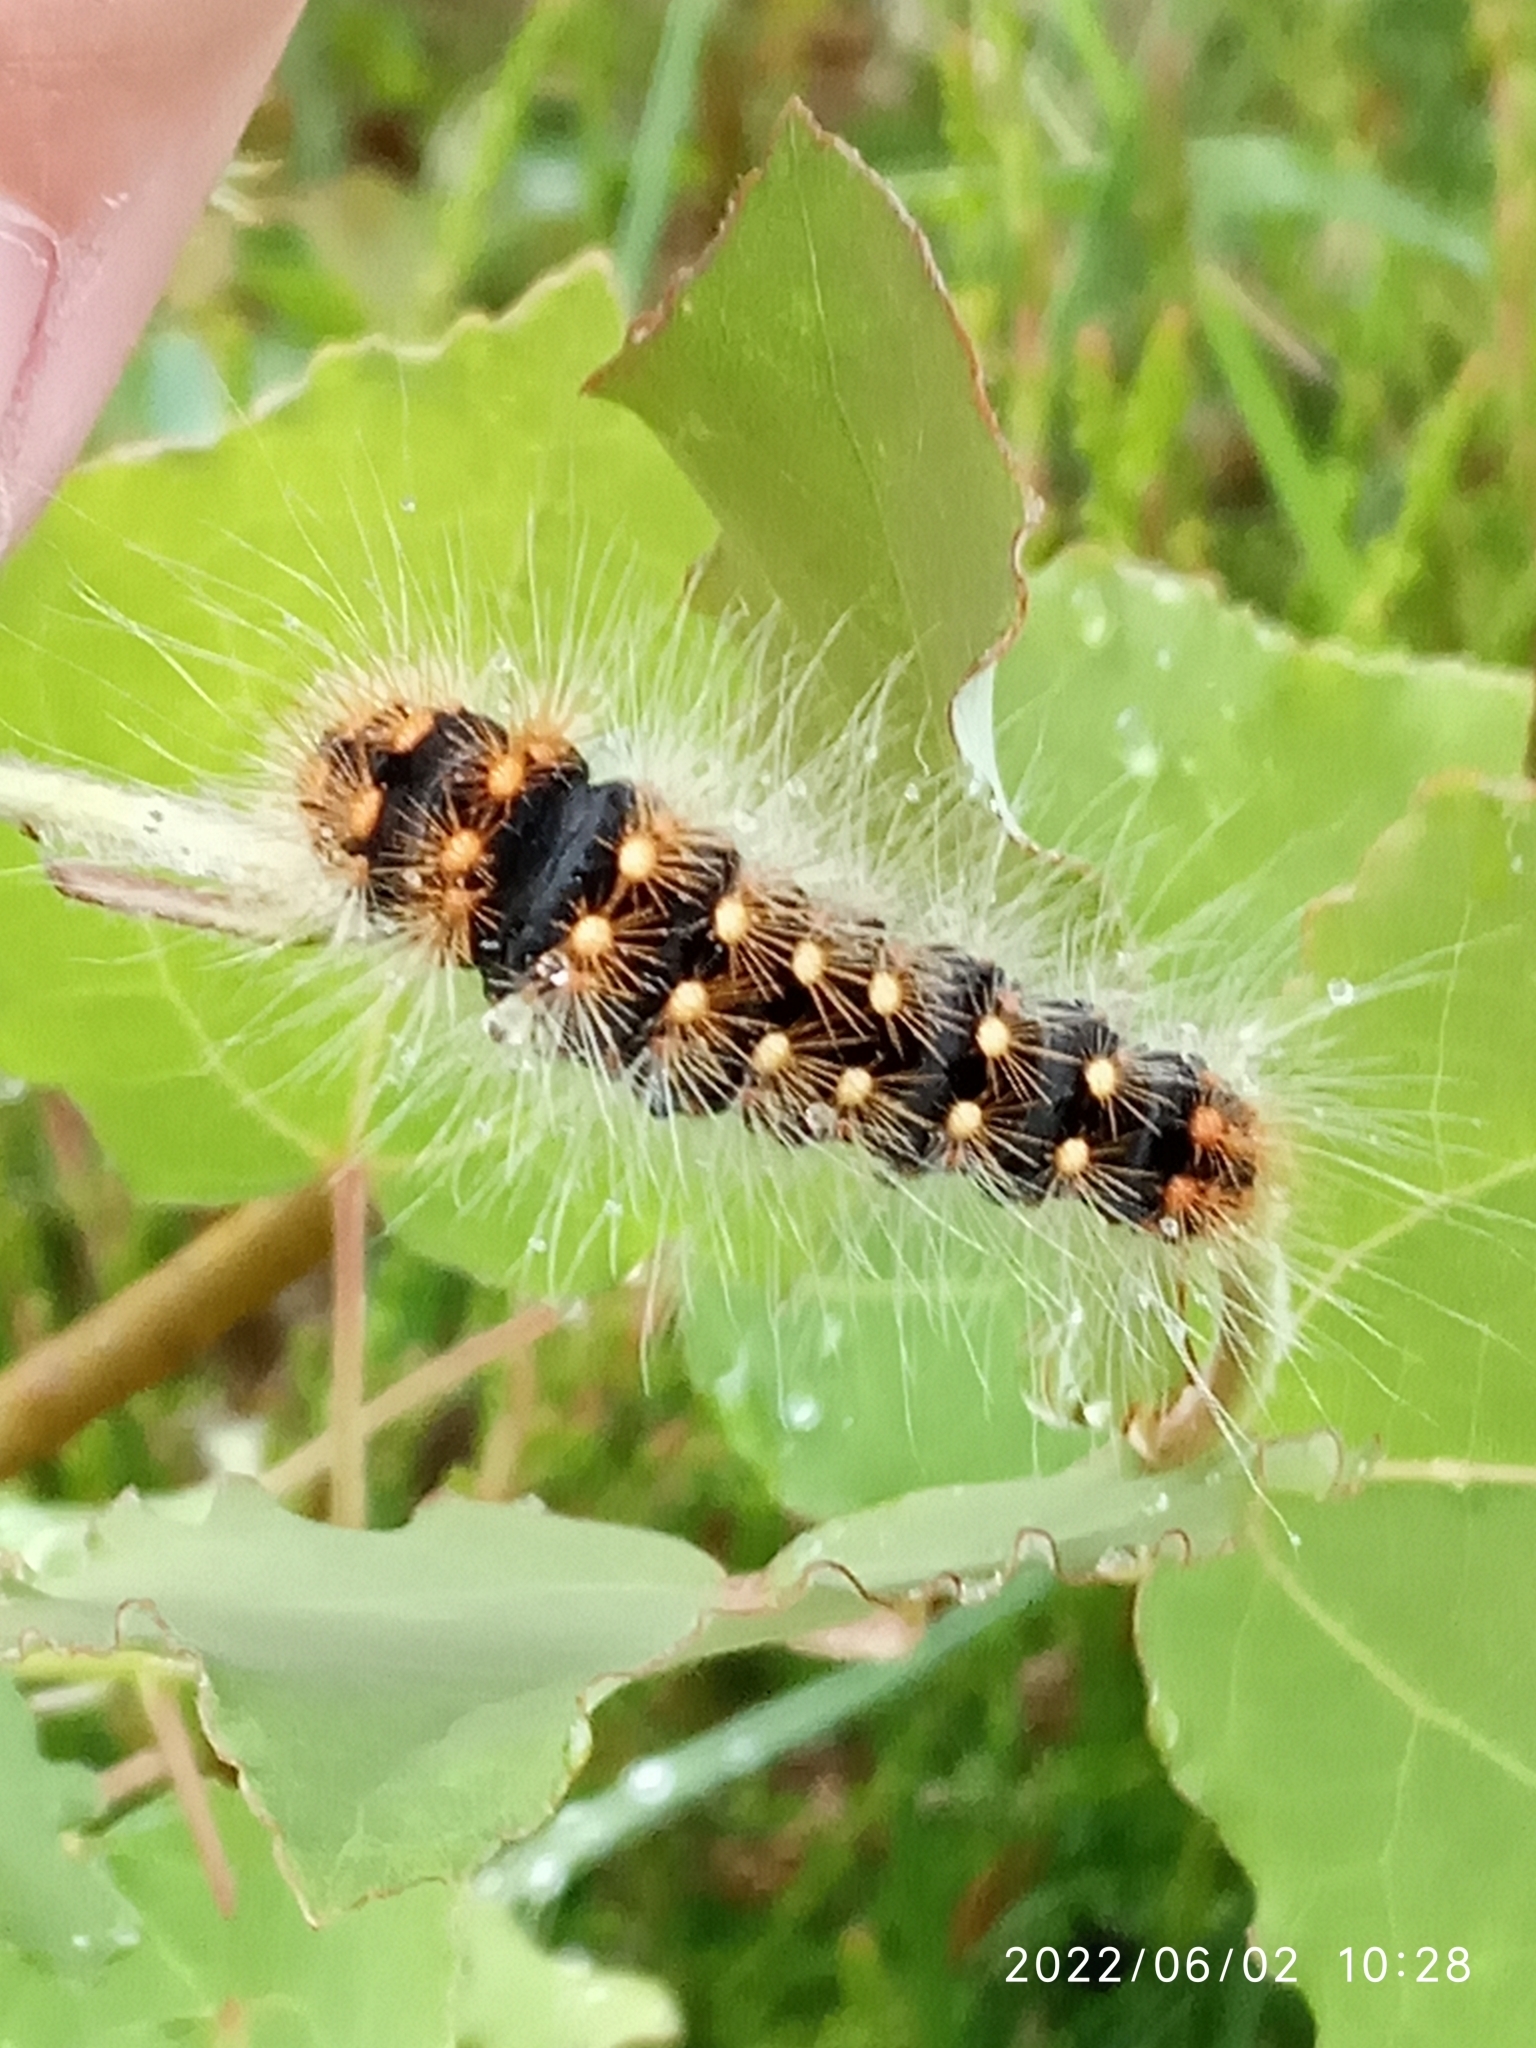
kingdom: Animalia
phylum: Arthropoda
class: Insecta
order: Lepidoptera
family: Noctuidae
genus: Acronicta
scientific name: Acronicta auricoma
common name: Scarce dagger
